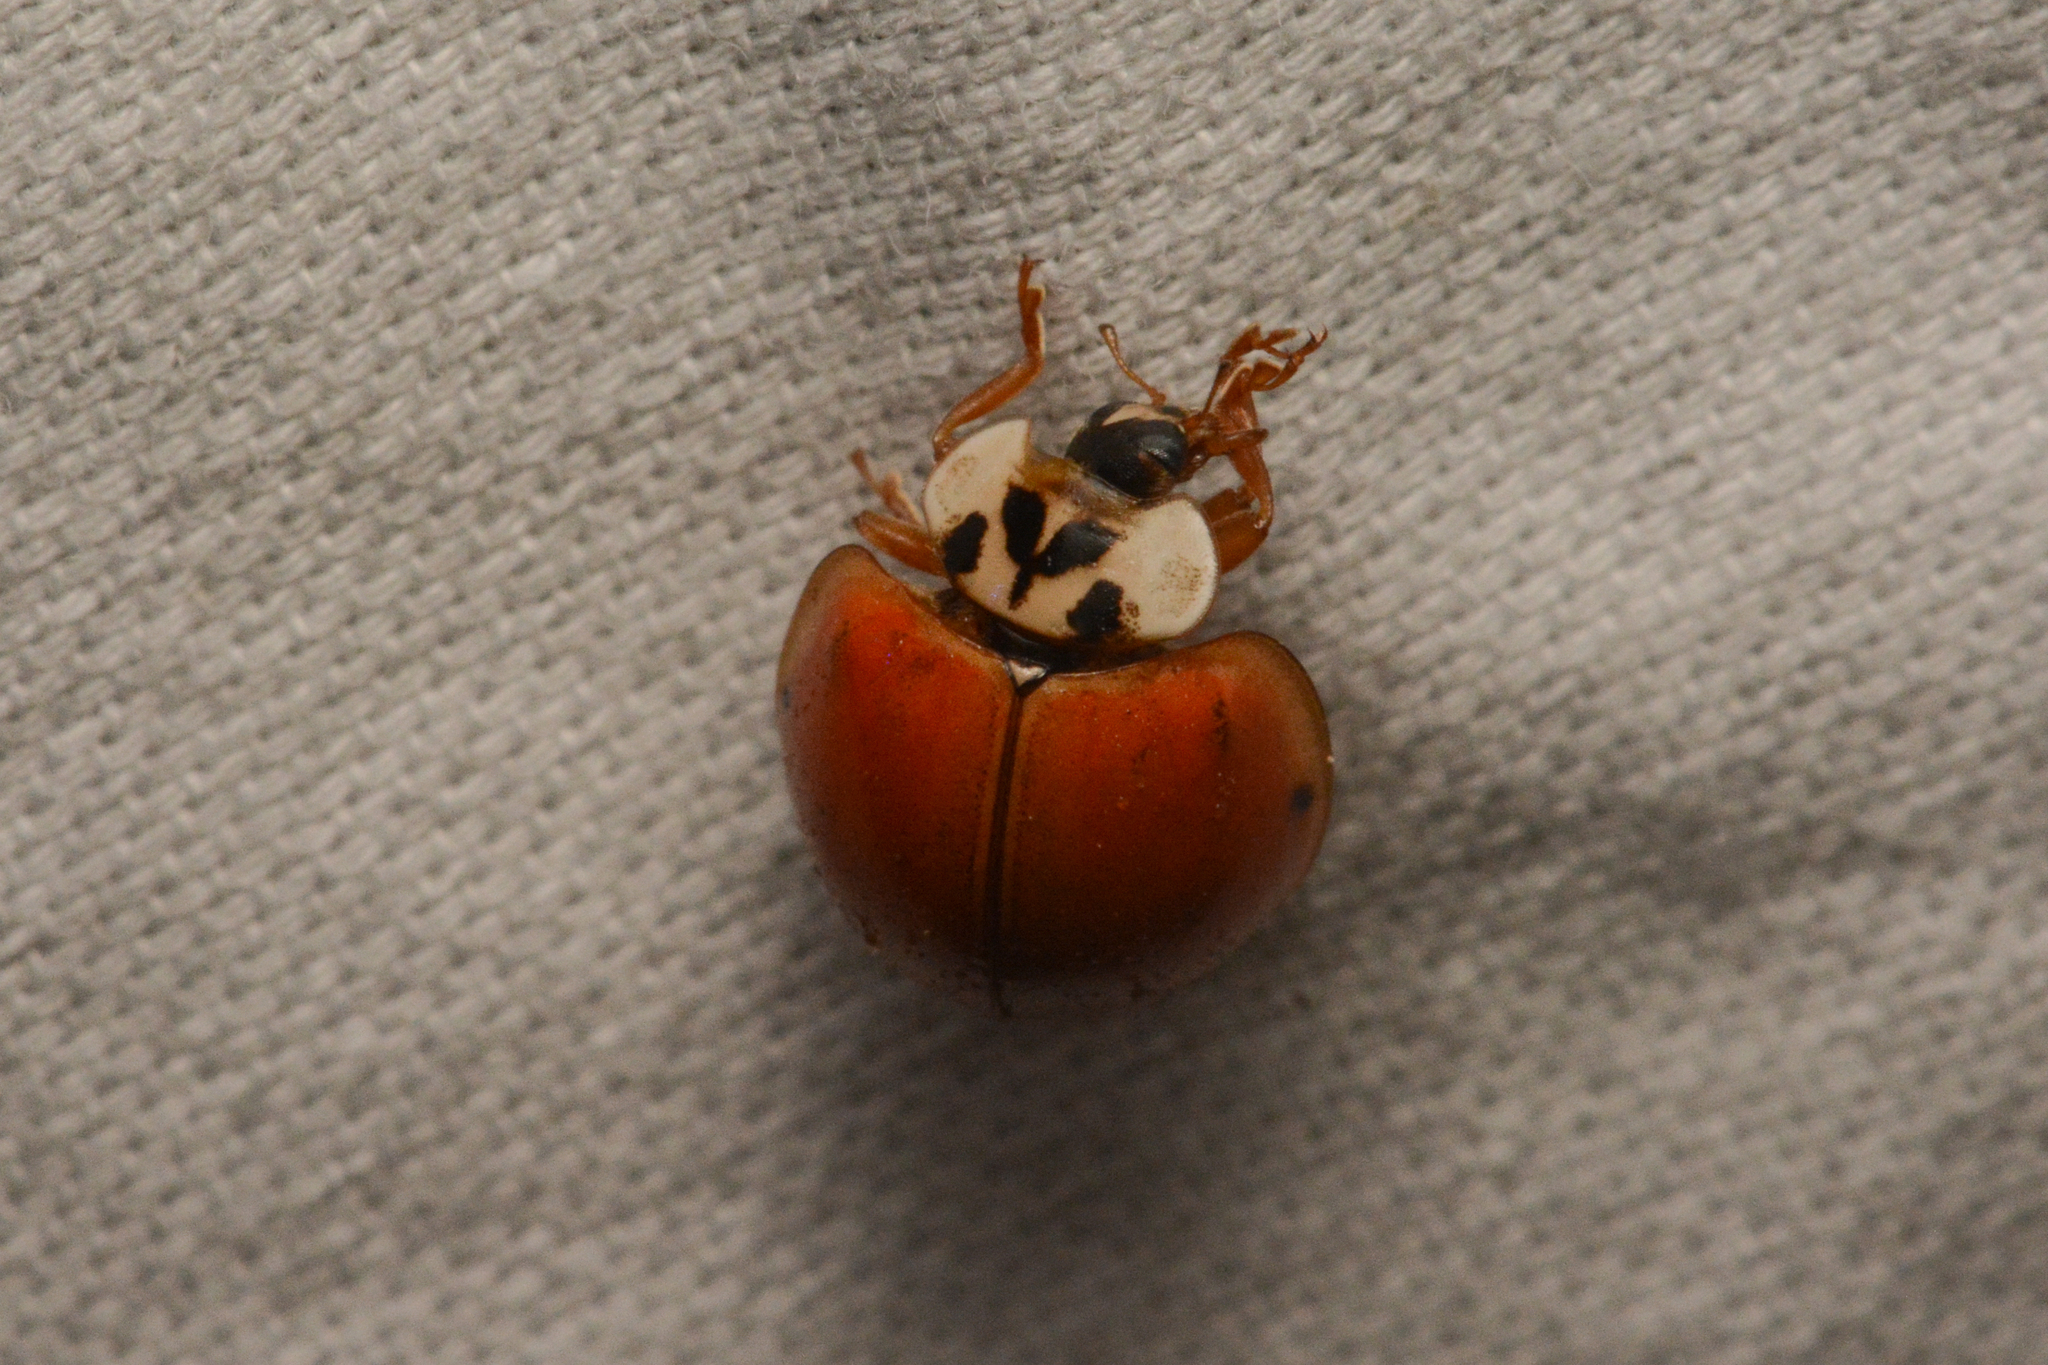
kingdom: Animalia
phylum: Arthropoda
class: Insecta
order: Coleoptera
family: Coccinellidae
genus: Harmonia
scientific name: Harmonia axyridis
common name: Harlequin ladybird
